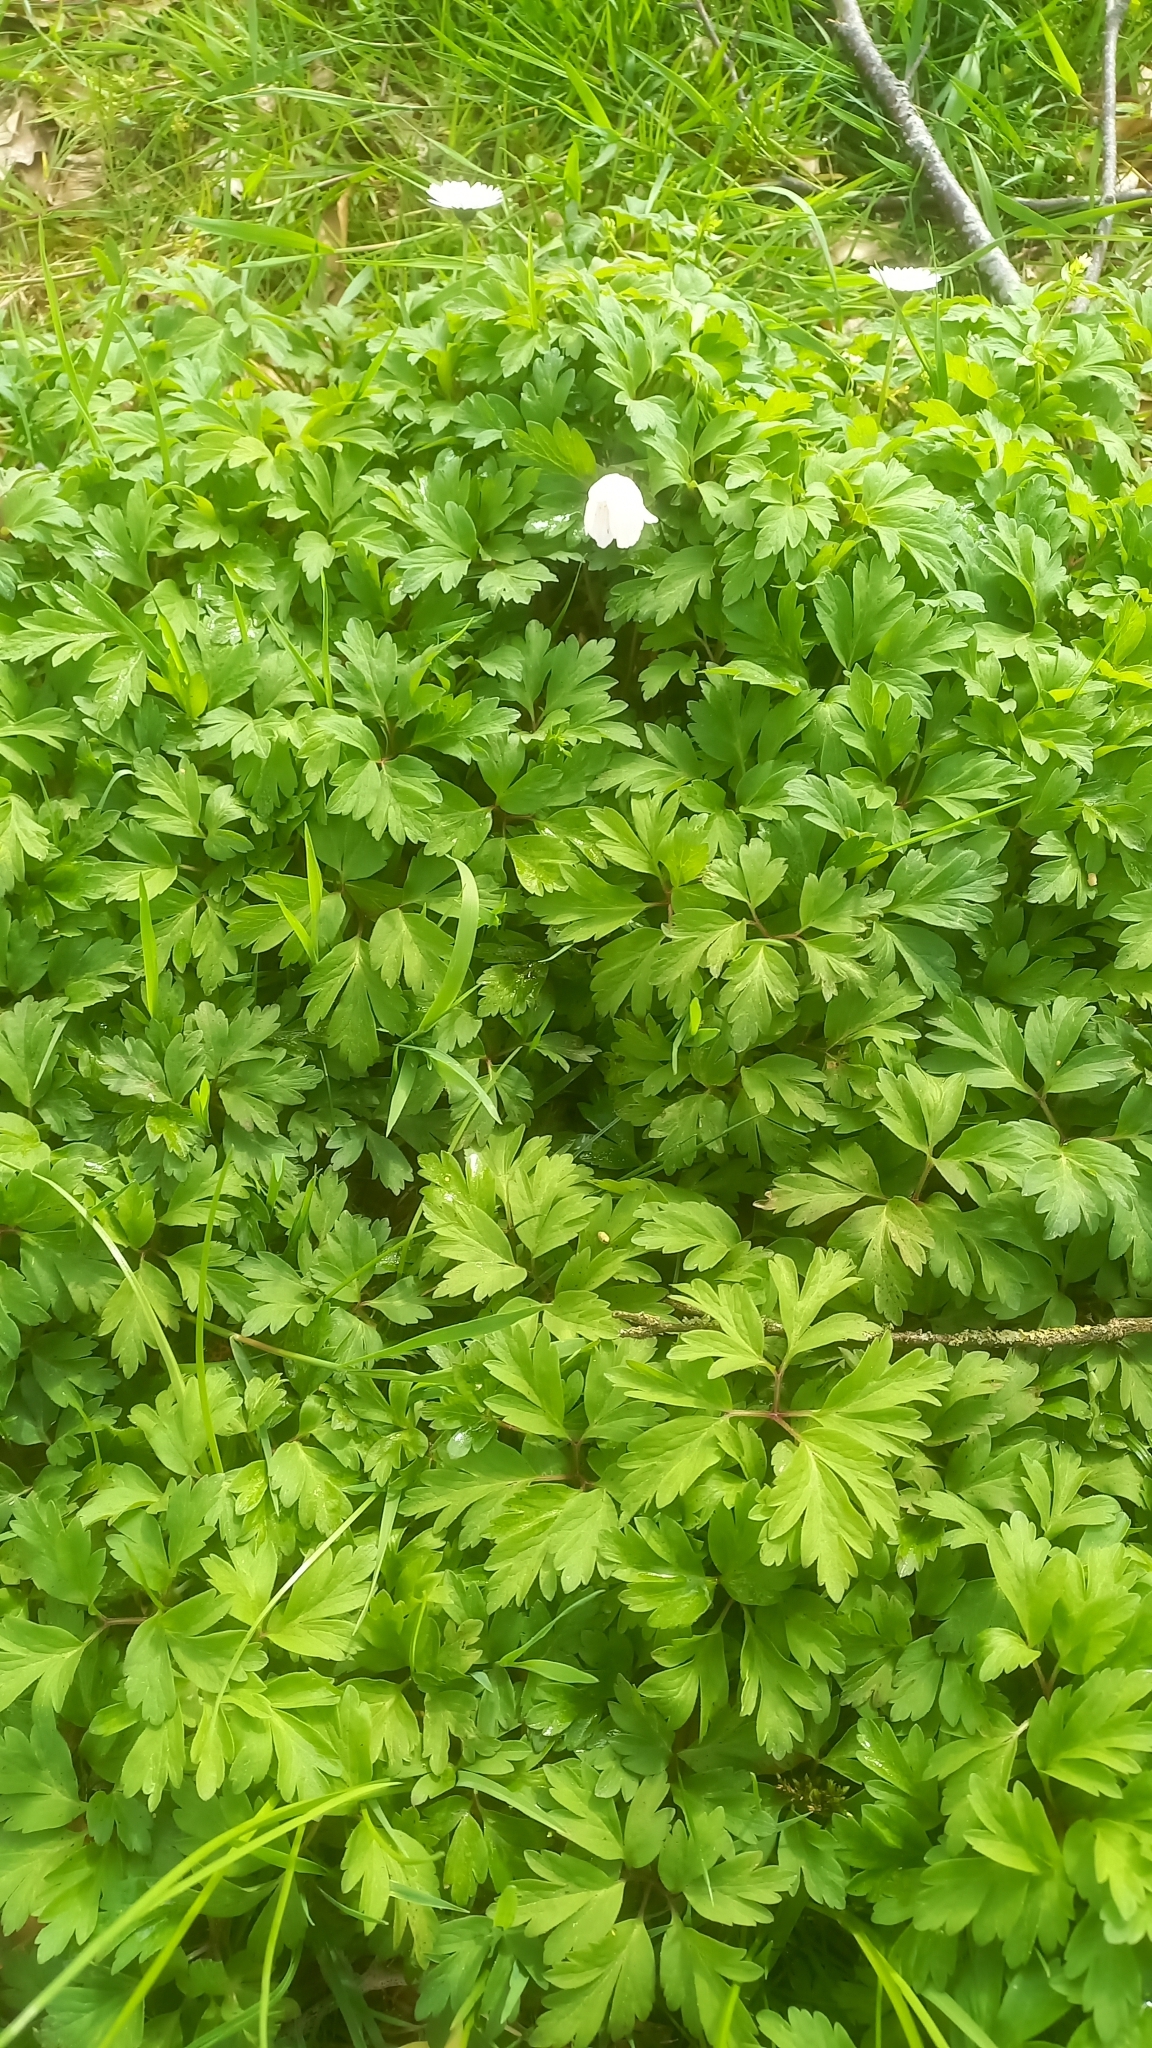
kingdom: Plantae
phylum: Tracheophyta
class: Magnoliopsida
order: Ranunculales
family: Ranunculaceae
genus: Anemone
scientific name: Anemone nemorosa
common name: Wood anemone
